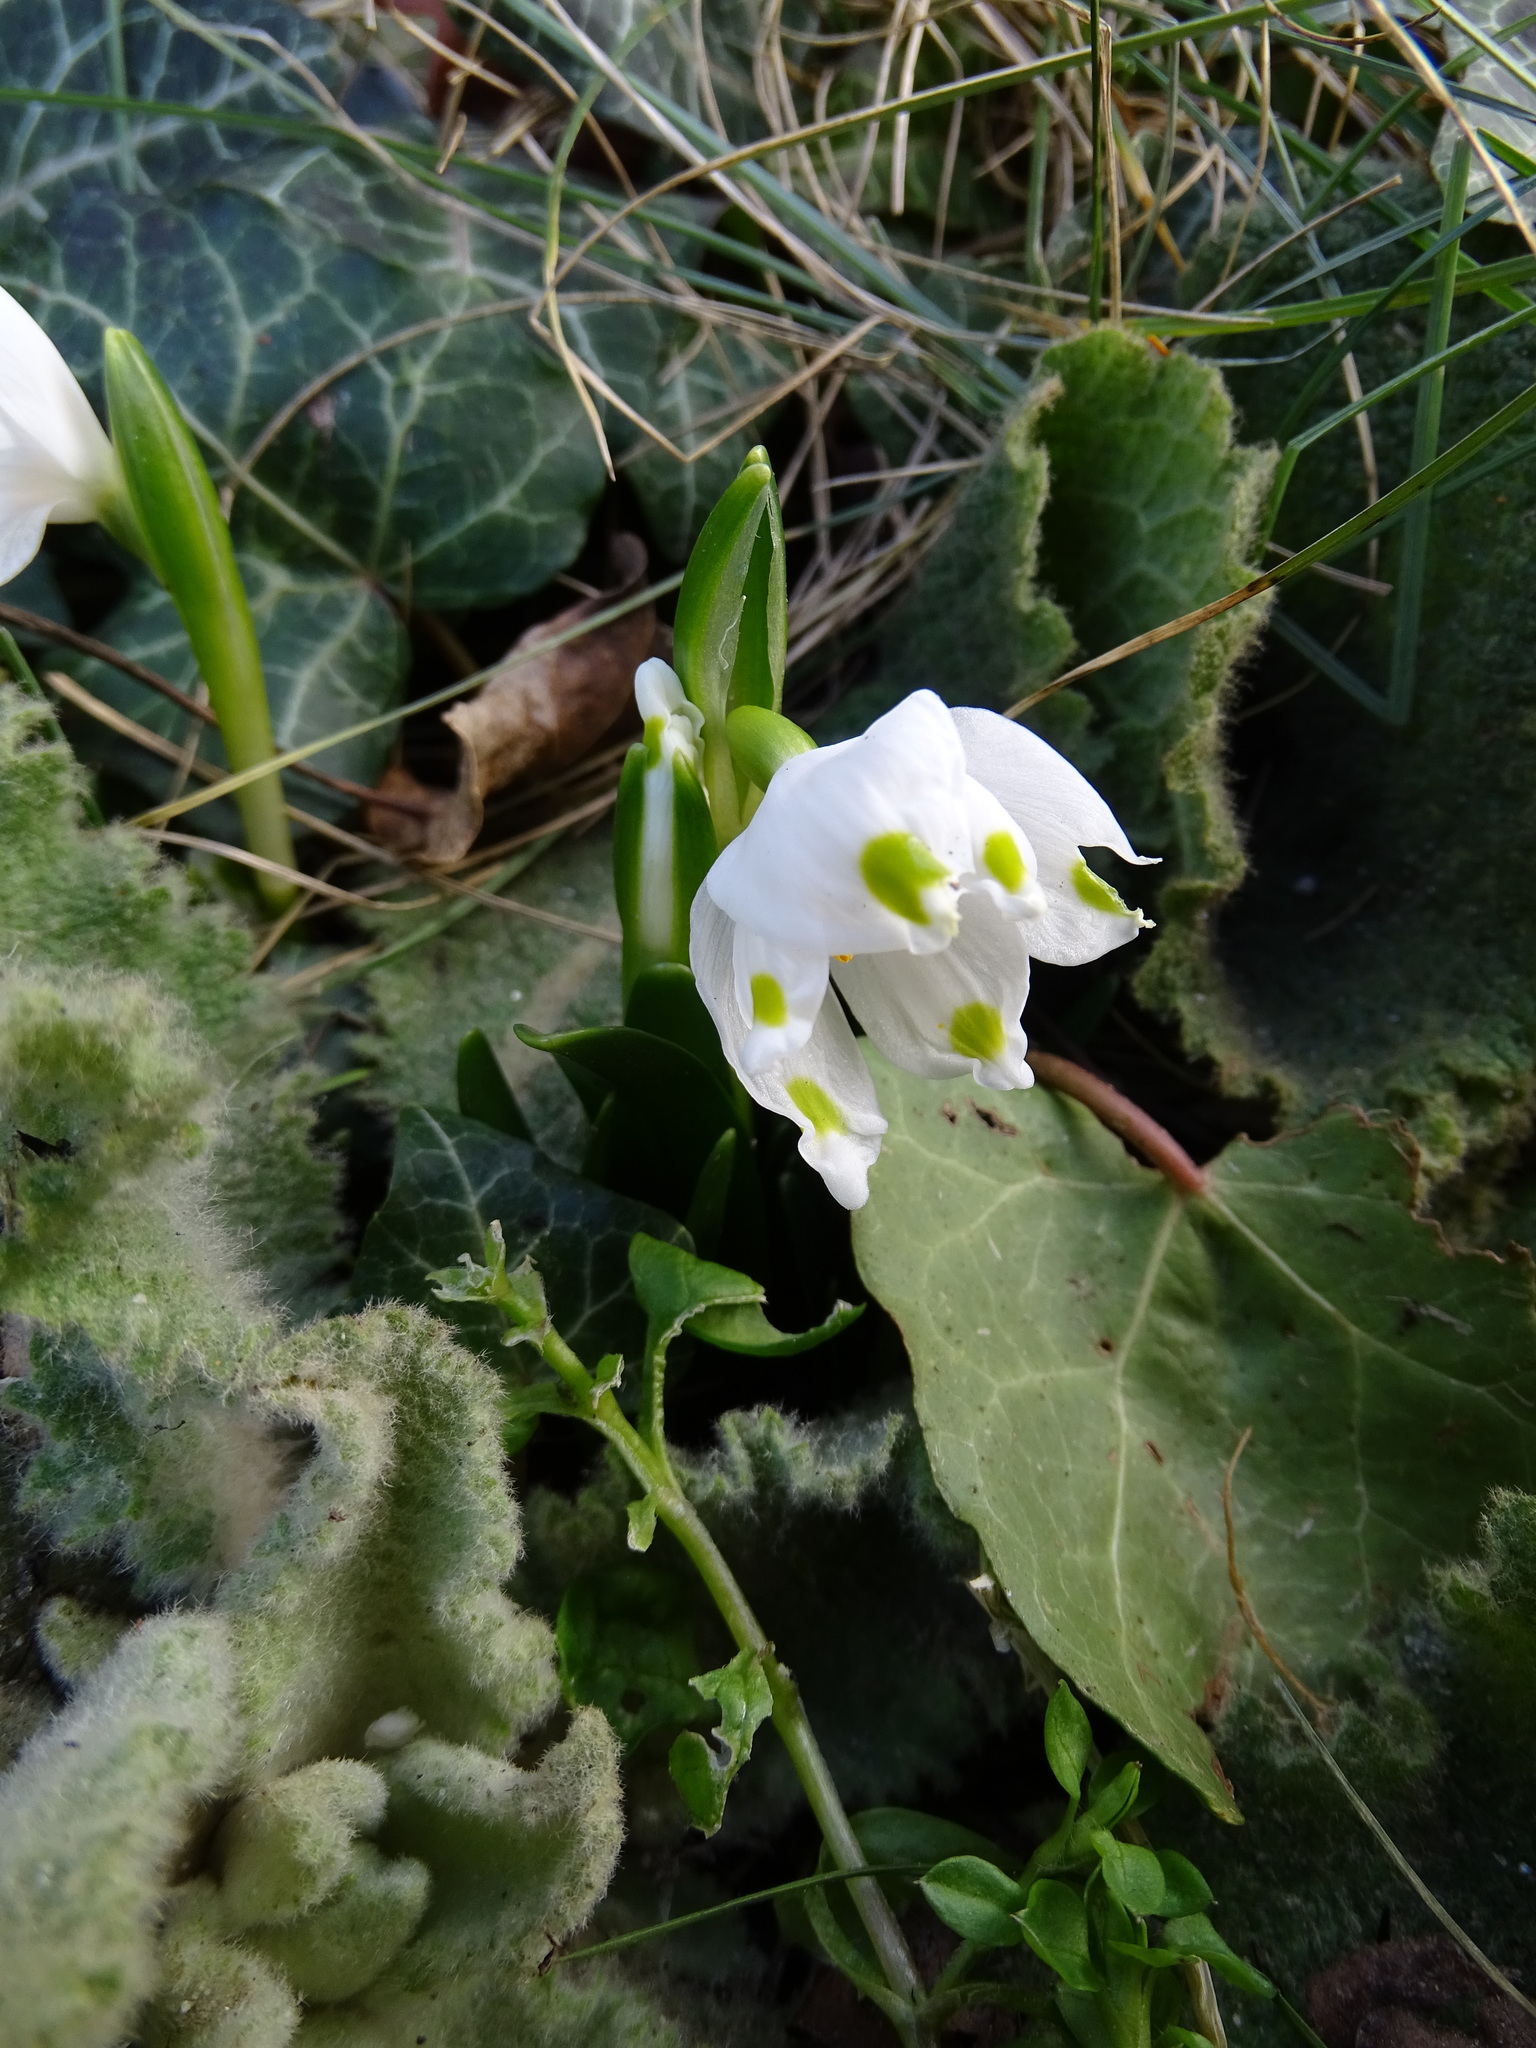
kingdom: Plantae
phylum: Tracheophyta
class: Liliopsida
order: Asparagales
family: Amaryllidaceae
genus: Leucojum
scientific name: Leucojum vernum
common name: Spring snowflake
